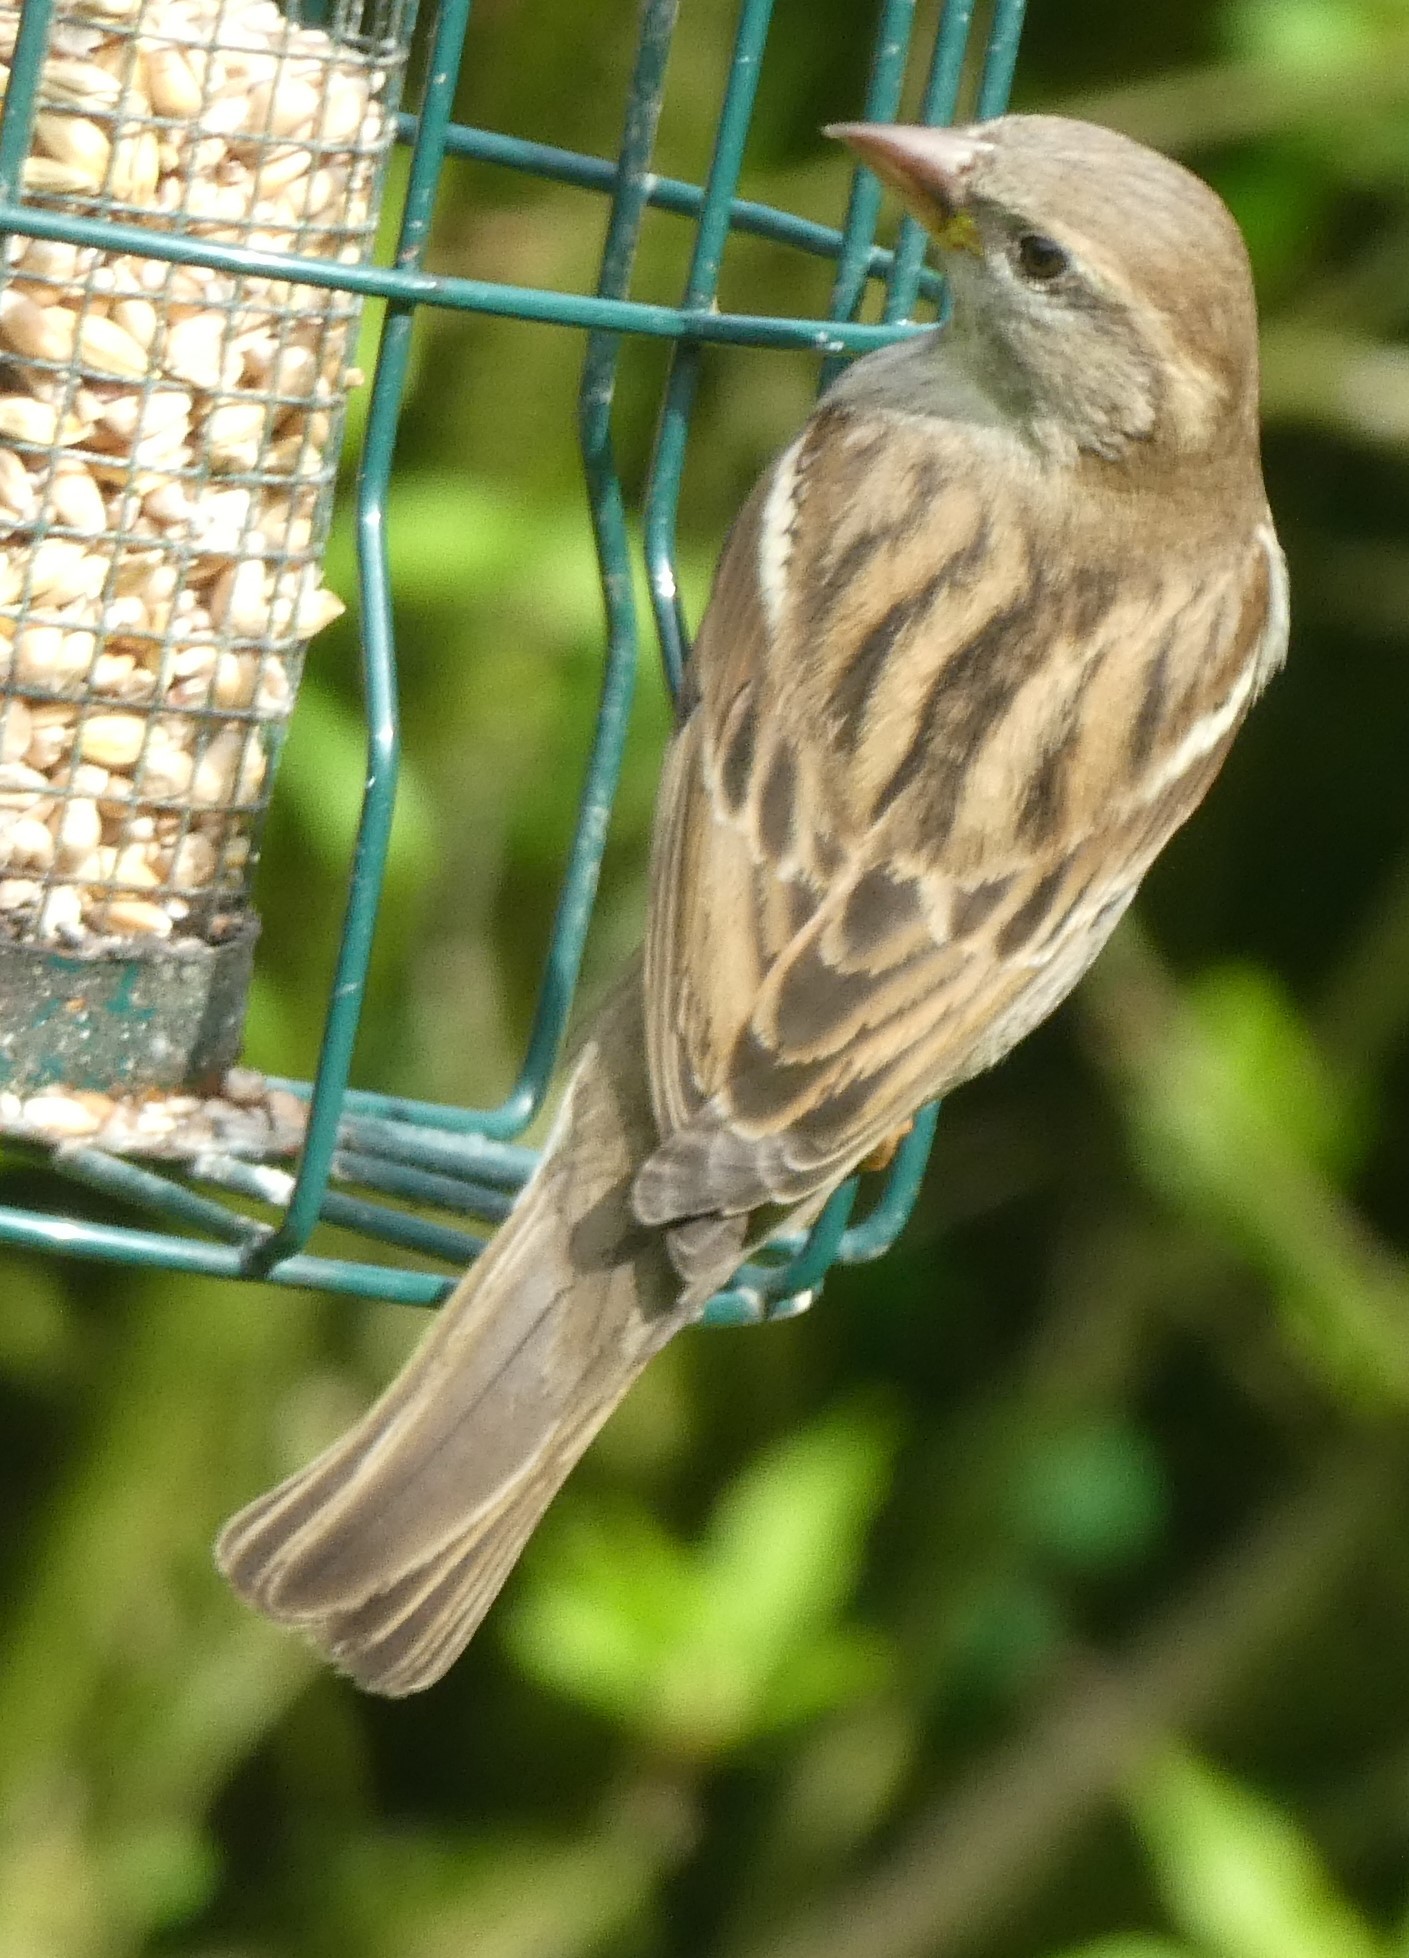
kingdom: Animalia
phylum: Chordata
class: Aves
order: Passeriformes
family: Passeridae
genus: Passer
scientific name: Passer domesticus
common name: House sparrow
